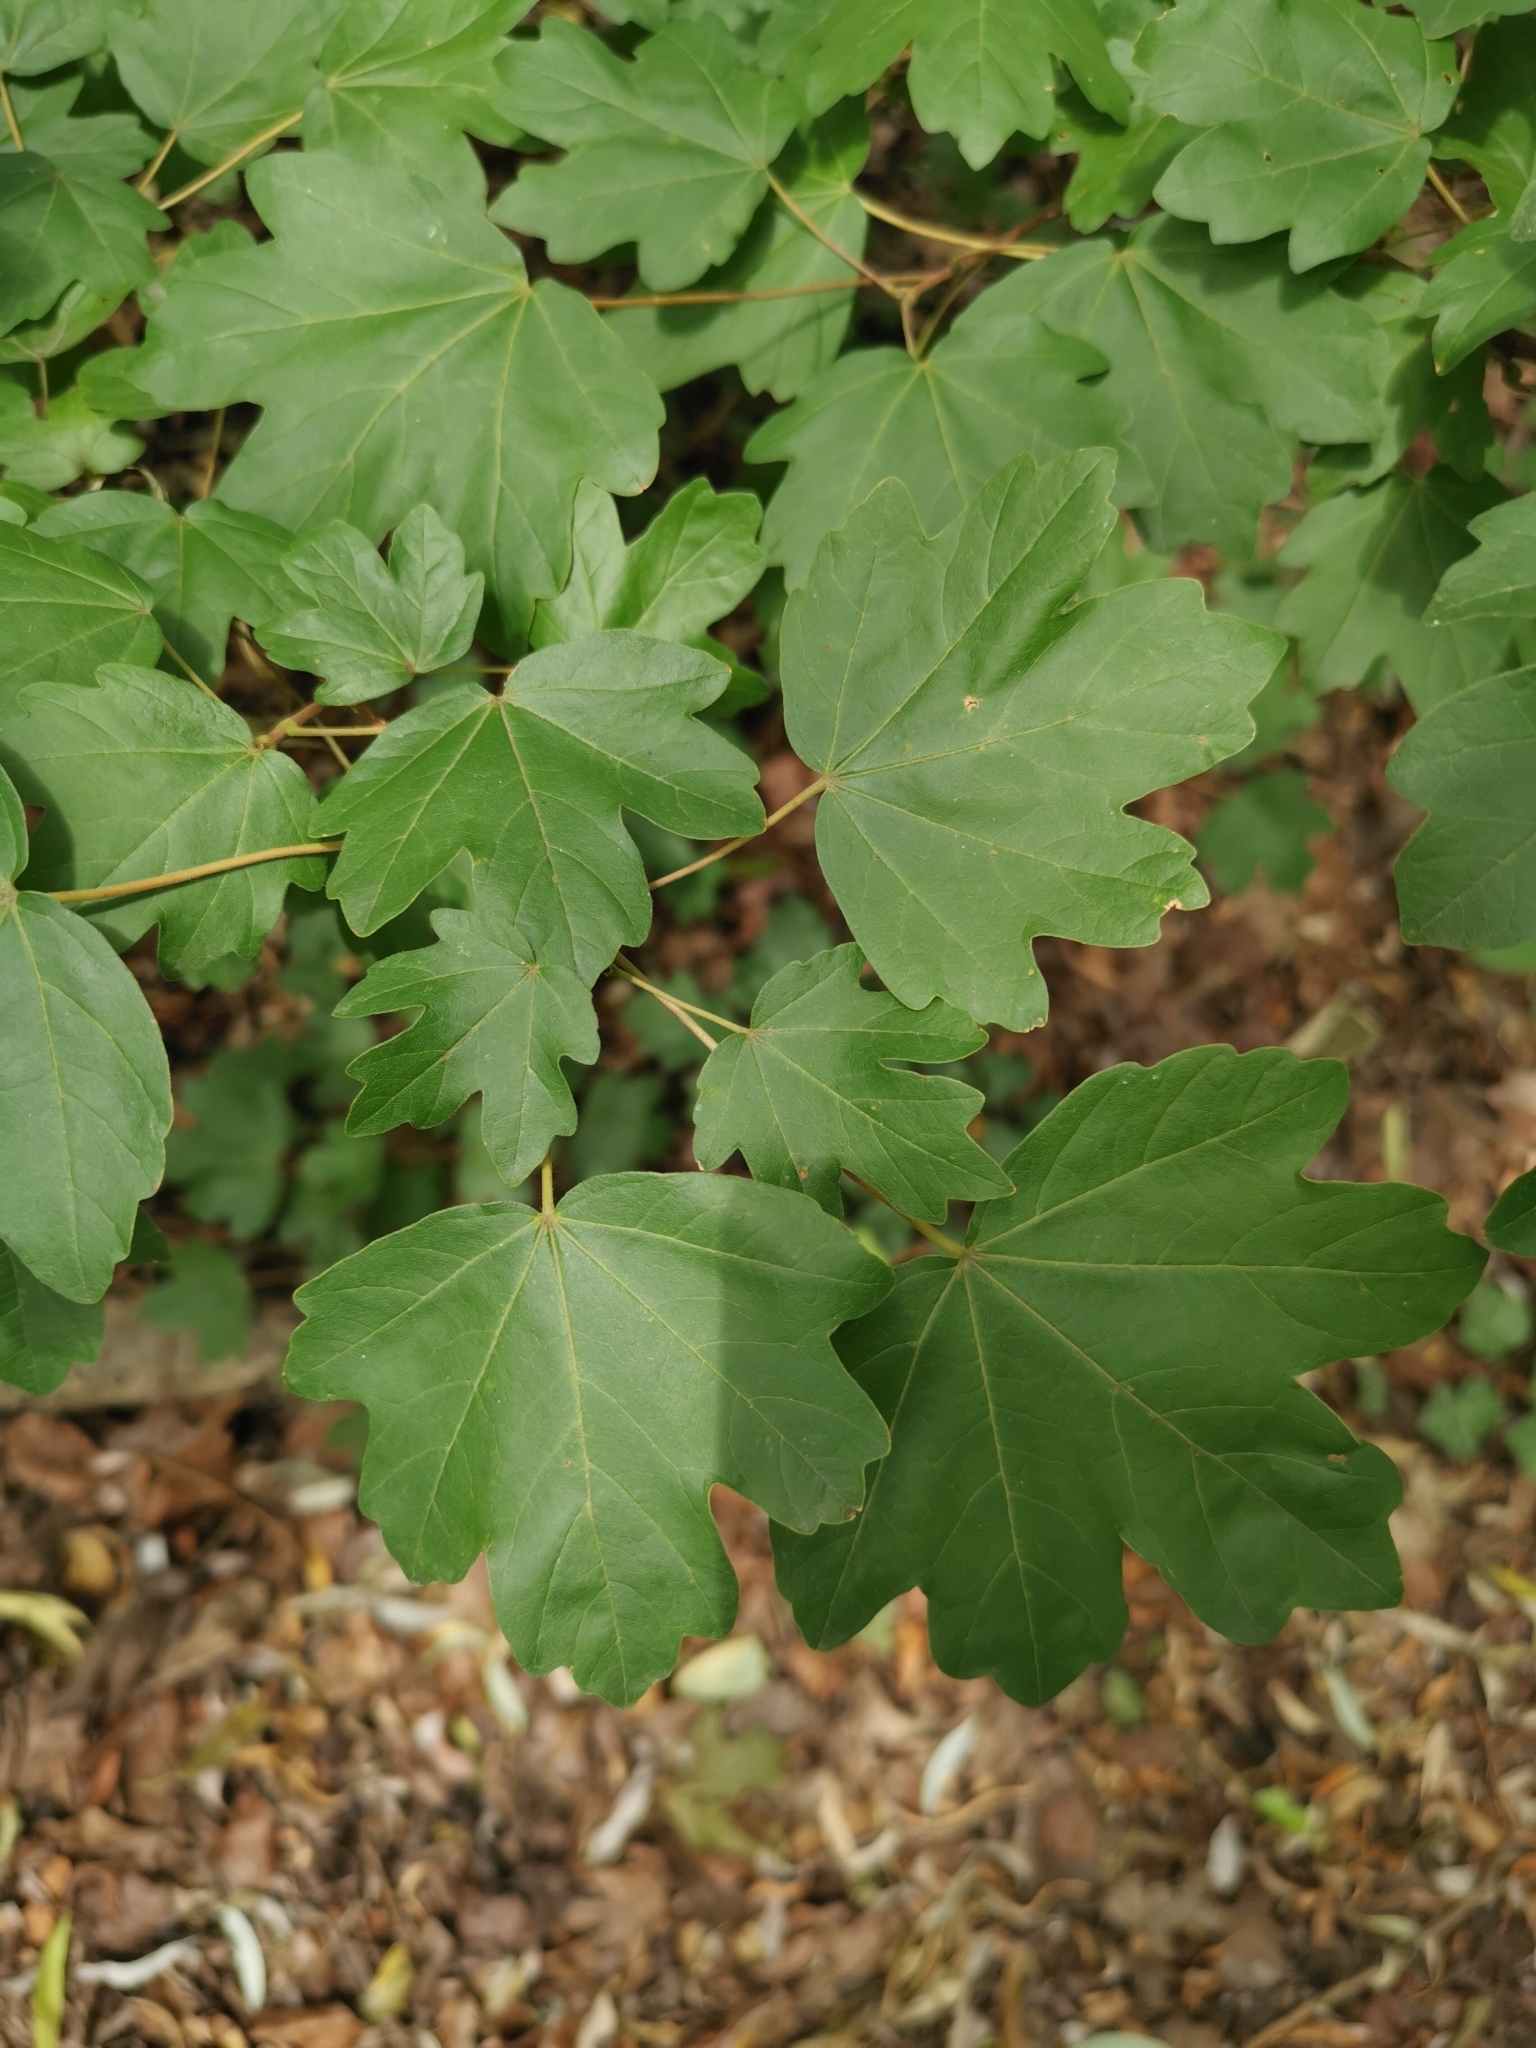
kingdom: Plantae
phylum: Tracheophyta
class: Magnoliopsida
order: Sapindales
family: Sapindaceae
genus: Acer
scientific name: Acer campestre
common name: Field maple
